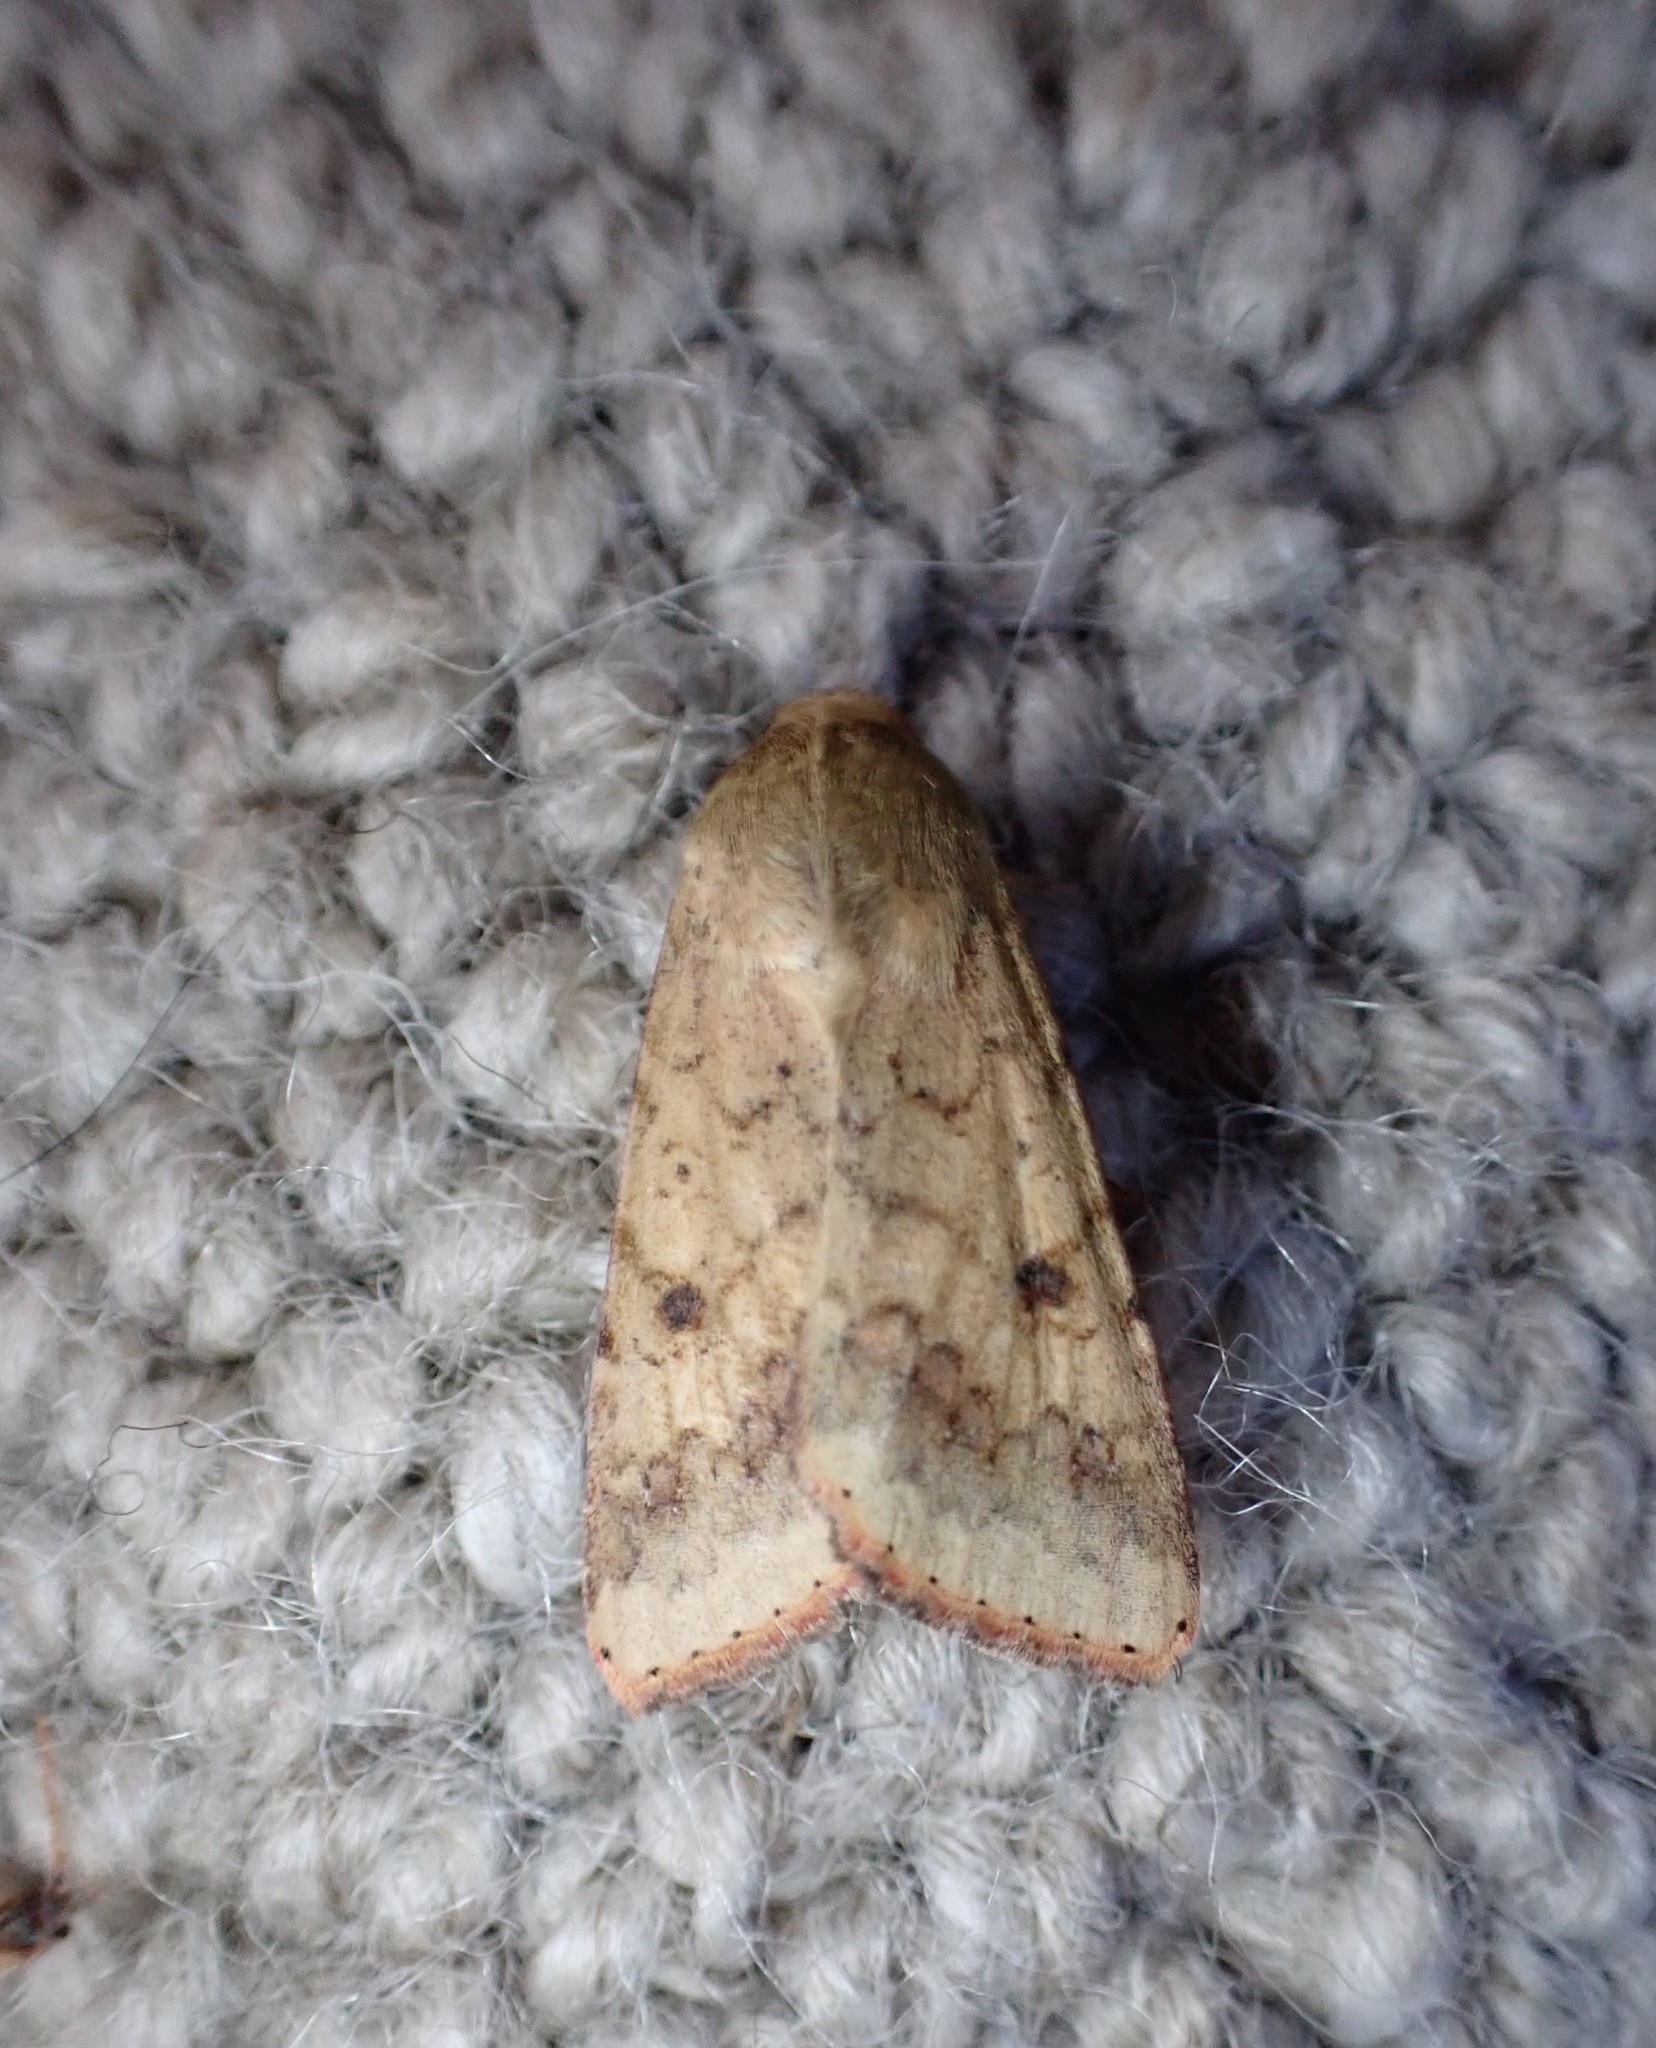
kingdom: Animalia
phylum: Arthropoda
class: Insecta
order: Lepidoptera
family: Noctuidae
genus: Helicoverpa
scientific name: Helicoverpa armigera
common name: Cotton bollworm
